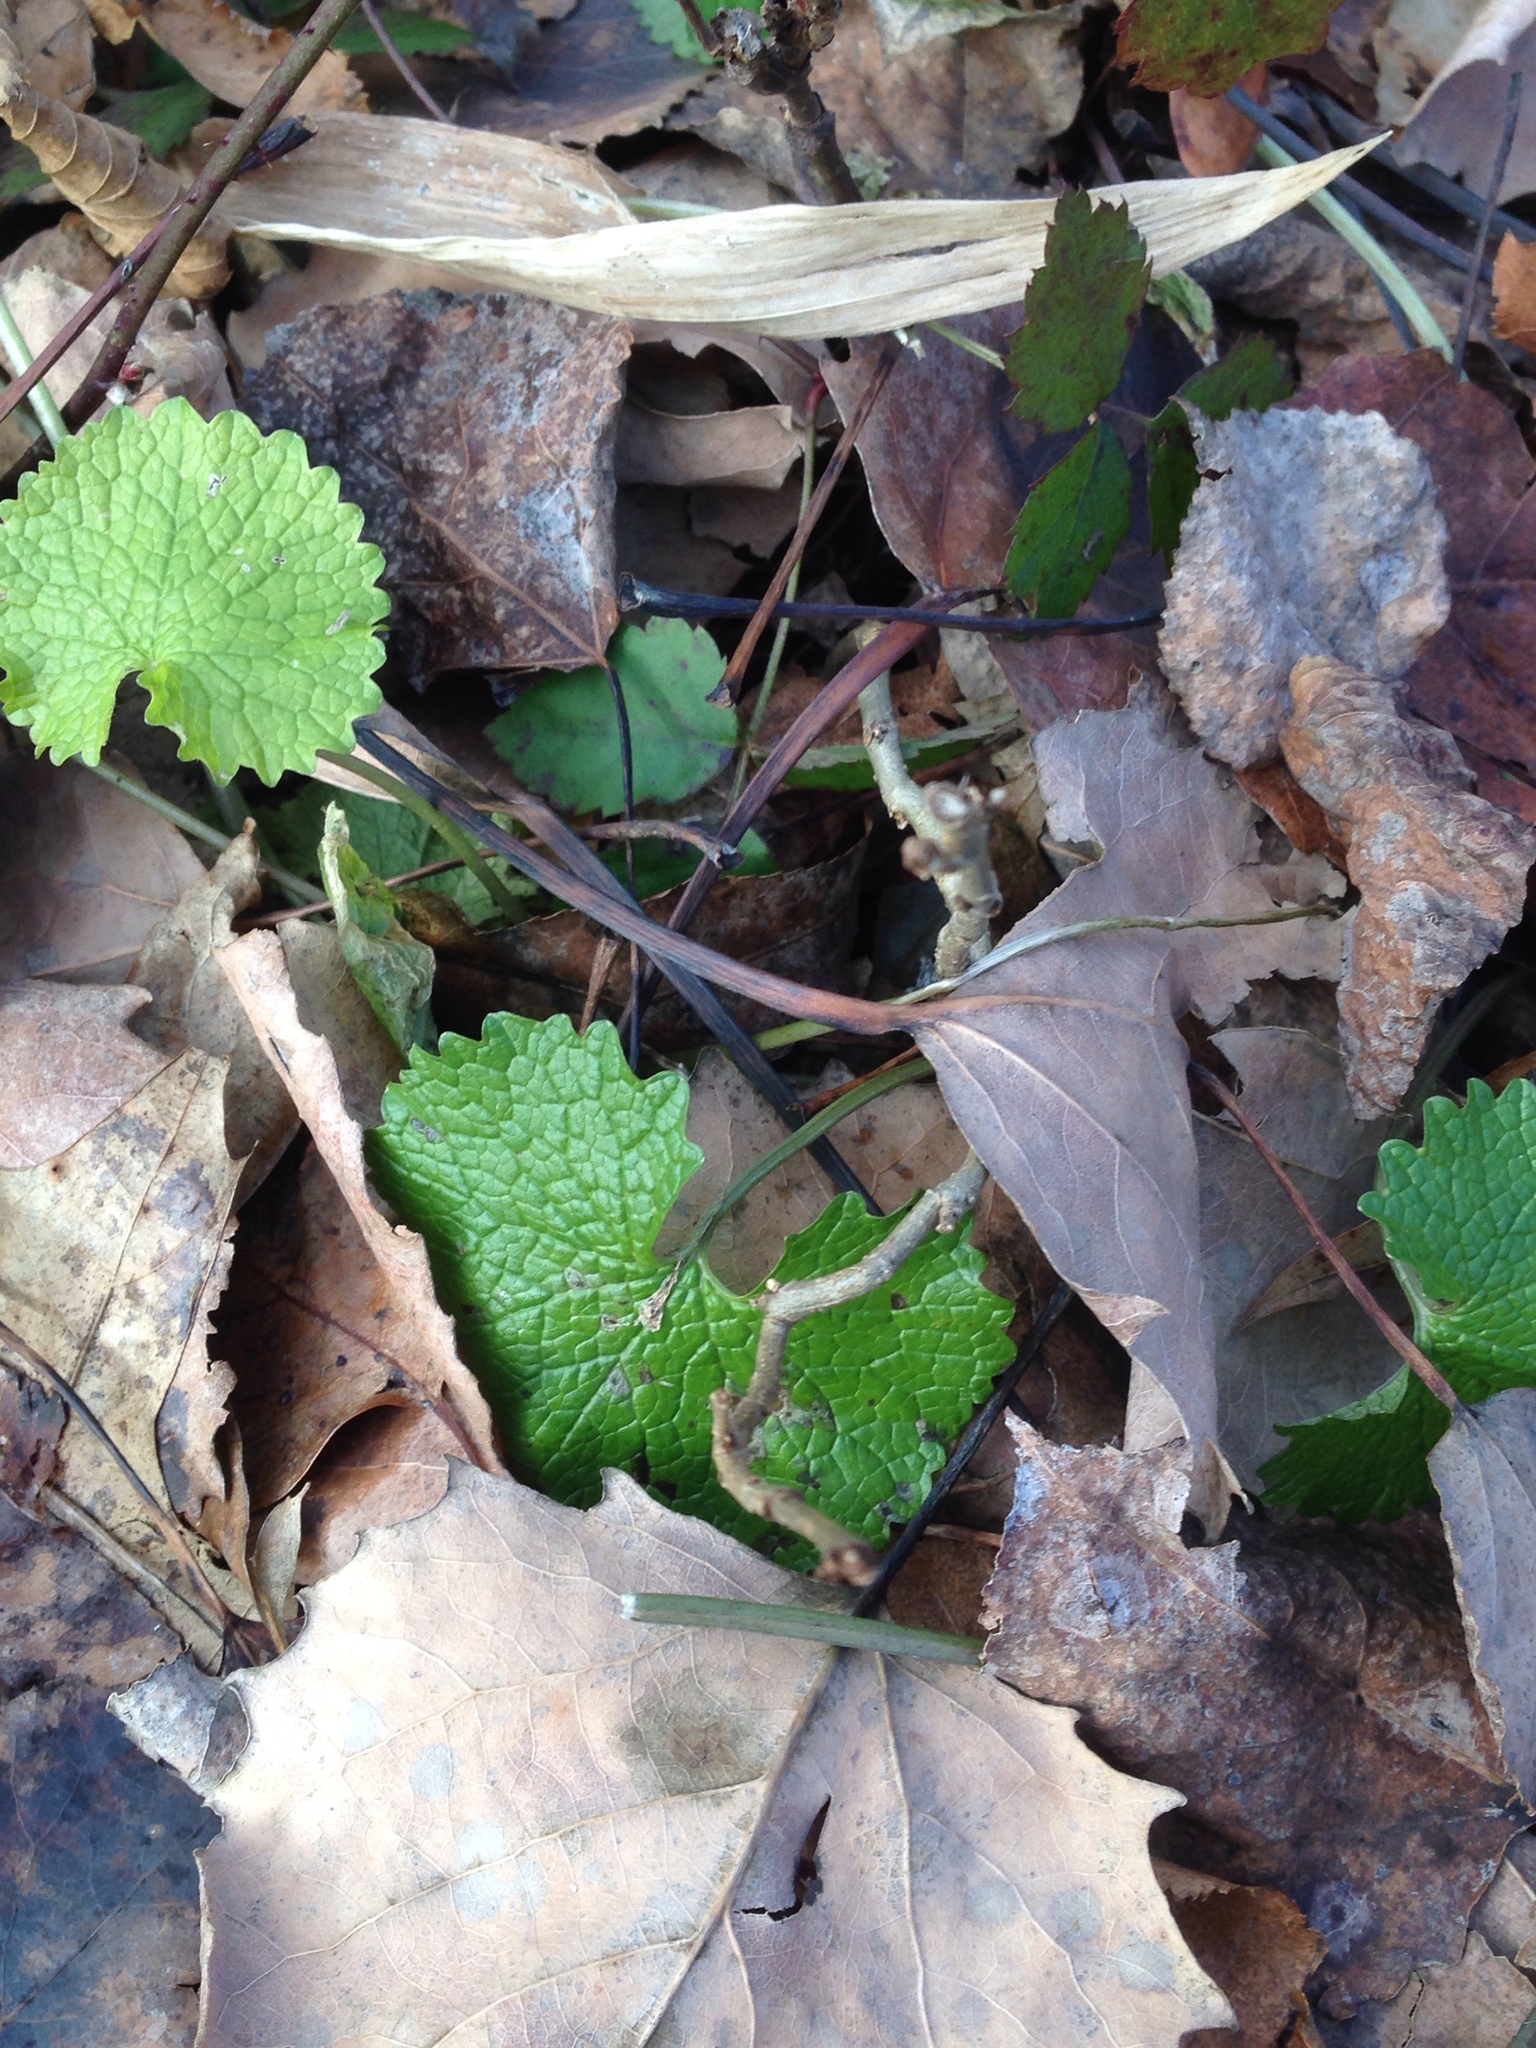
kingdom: Plantae
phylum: Tracheophyta
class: Magnoliopsida
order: Brassicales
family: Brassicaceae
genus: Alliaria
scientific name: Alliaria petiolata
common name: Garlic mustard
